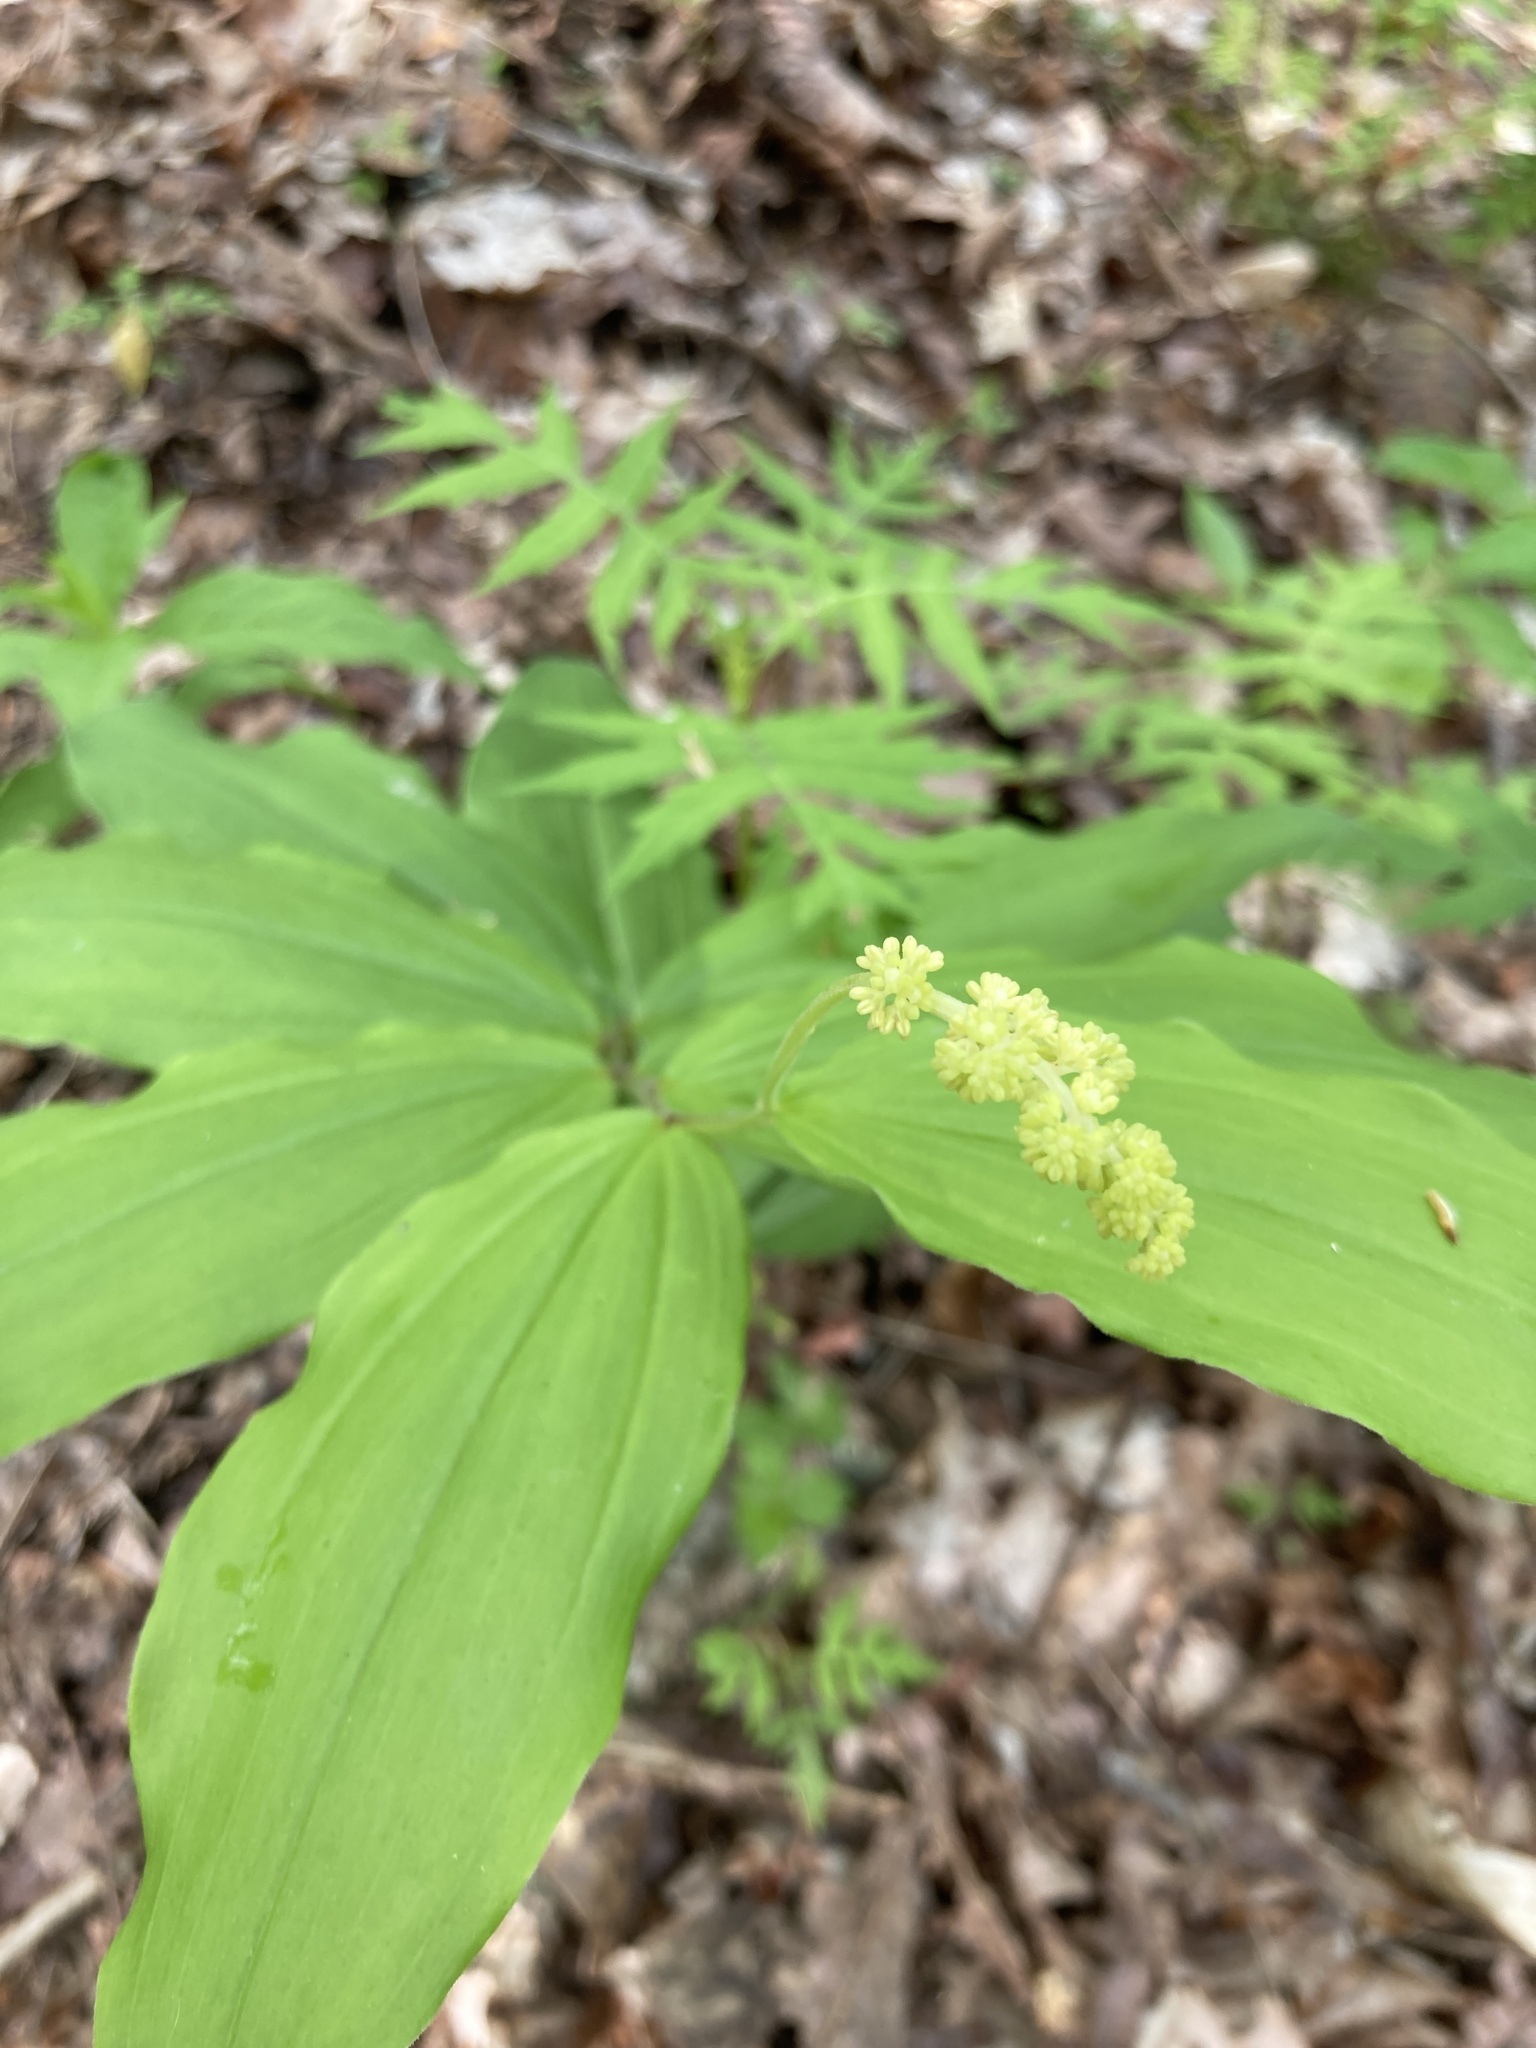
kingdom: Plantae
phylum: Tracheophyta
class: Liliopsida
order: Asparagales
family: Asparagaceae
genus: Maianthemum
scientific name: Maianthemum racemosum
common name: False spikenard
